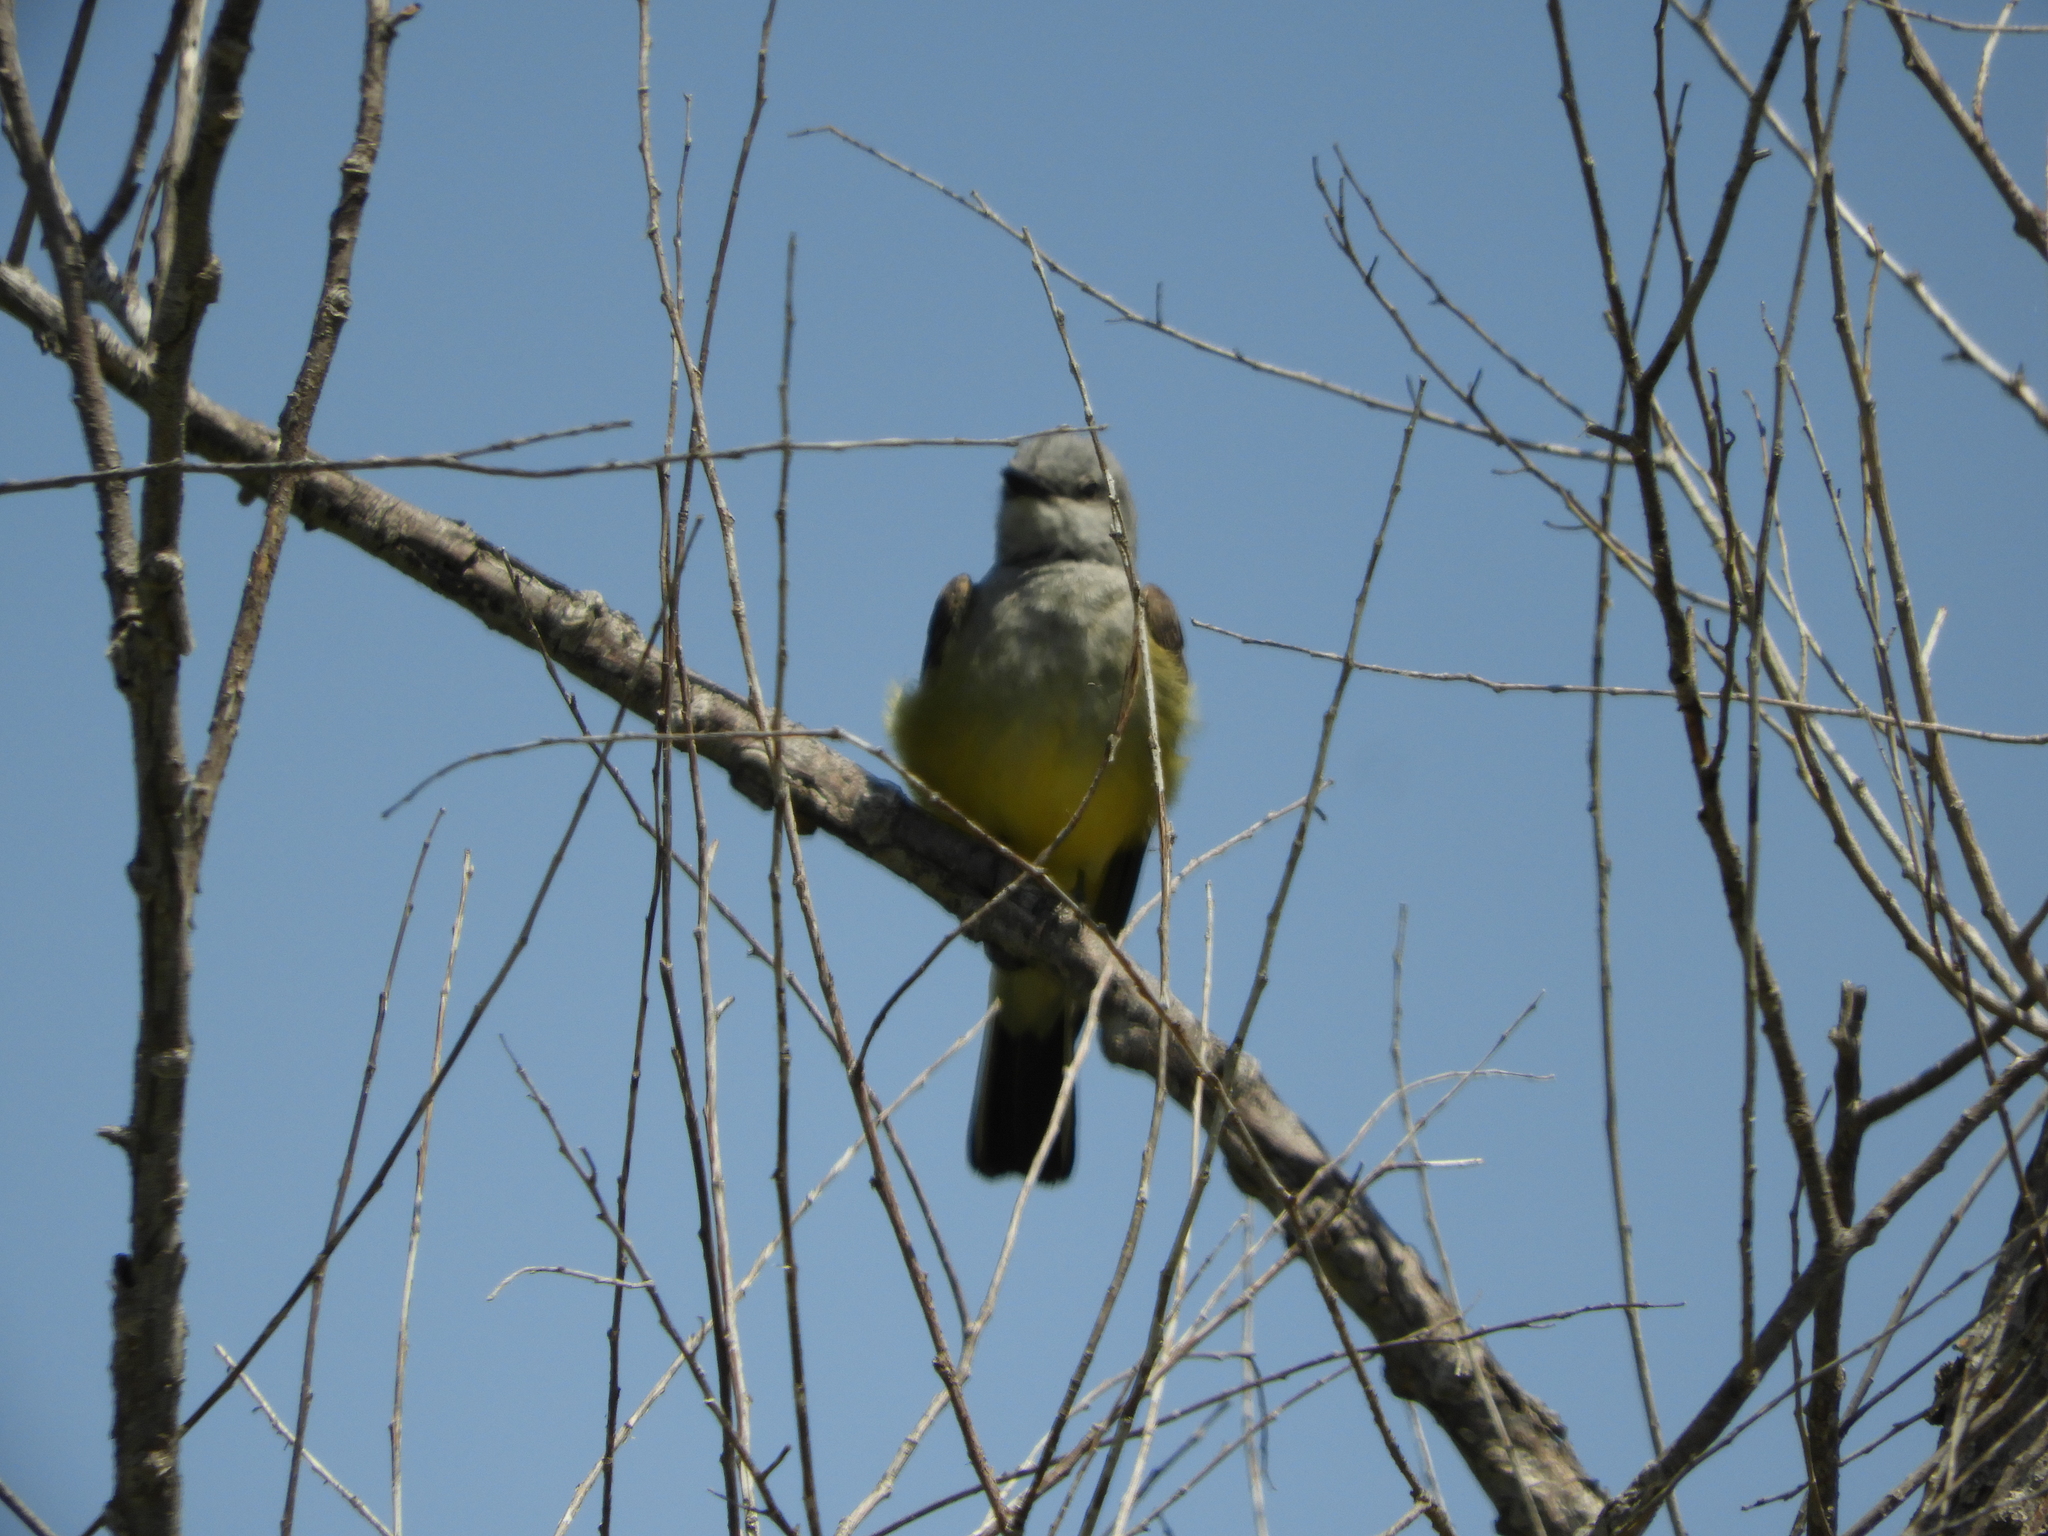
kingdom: Animalia
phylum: Chordata
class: Aves
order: Passeriformes
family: Tyrannidae
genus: Tyrannus
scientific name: Tyrannus verticalis
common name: Western kingbird
